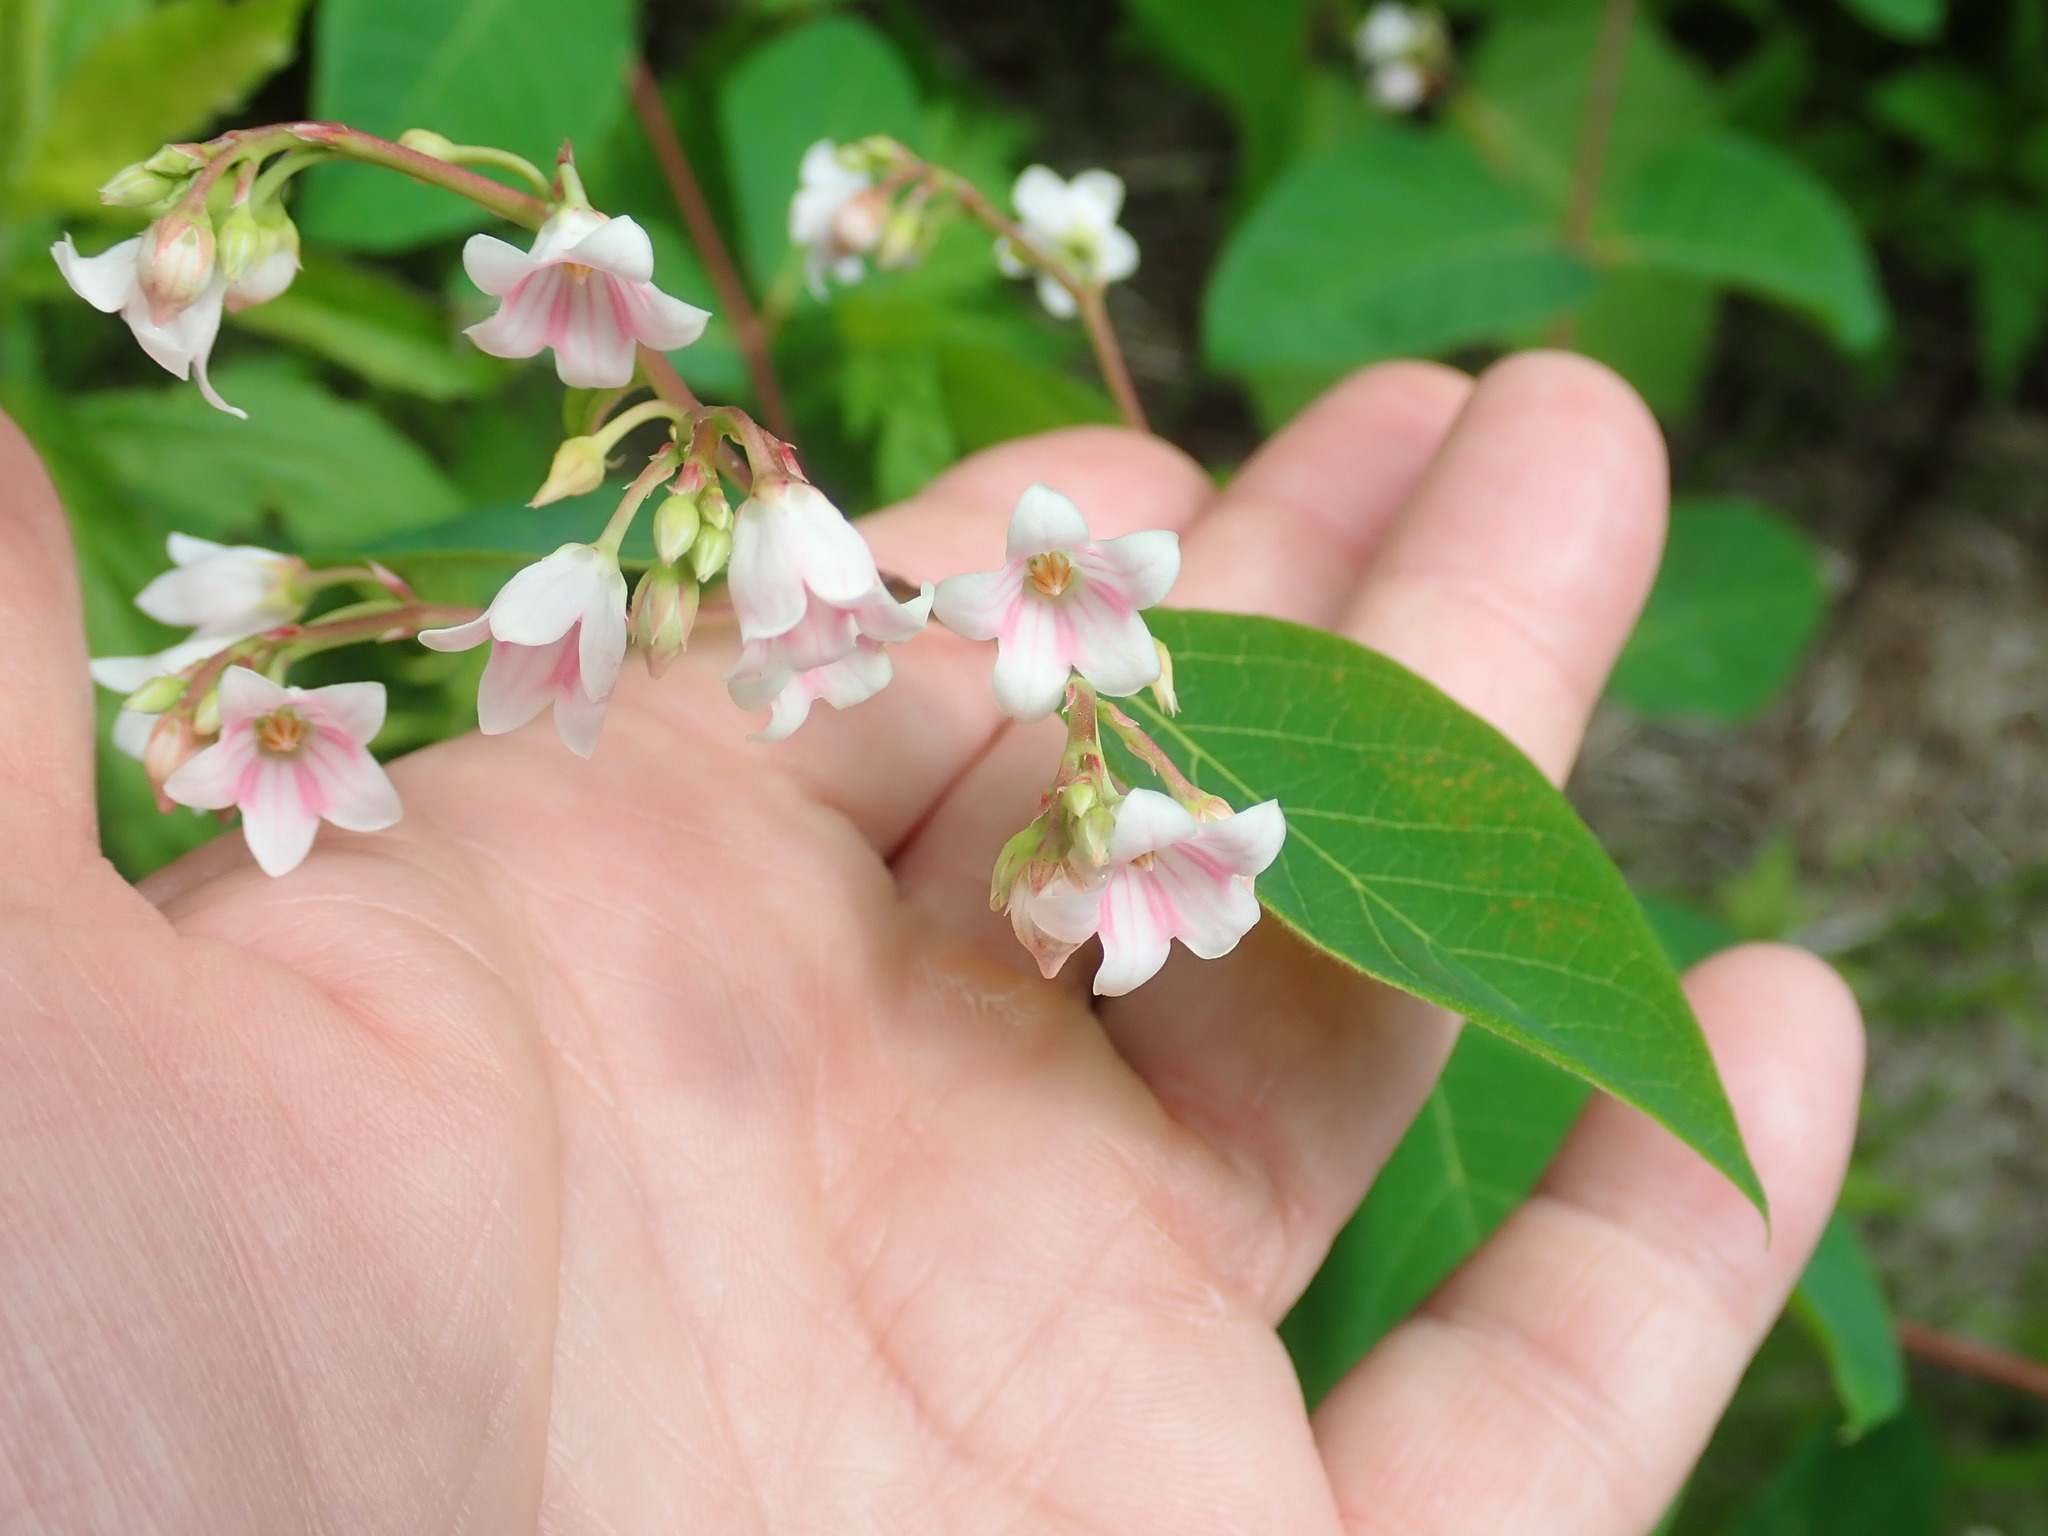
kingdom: Plantae
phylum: Tracheophyta
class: Magnoliopsida
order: Gentianales
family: Apocynaceae
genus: Apocynum
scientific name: Apocynum androsaemifolium
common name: Spreading dogbane
